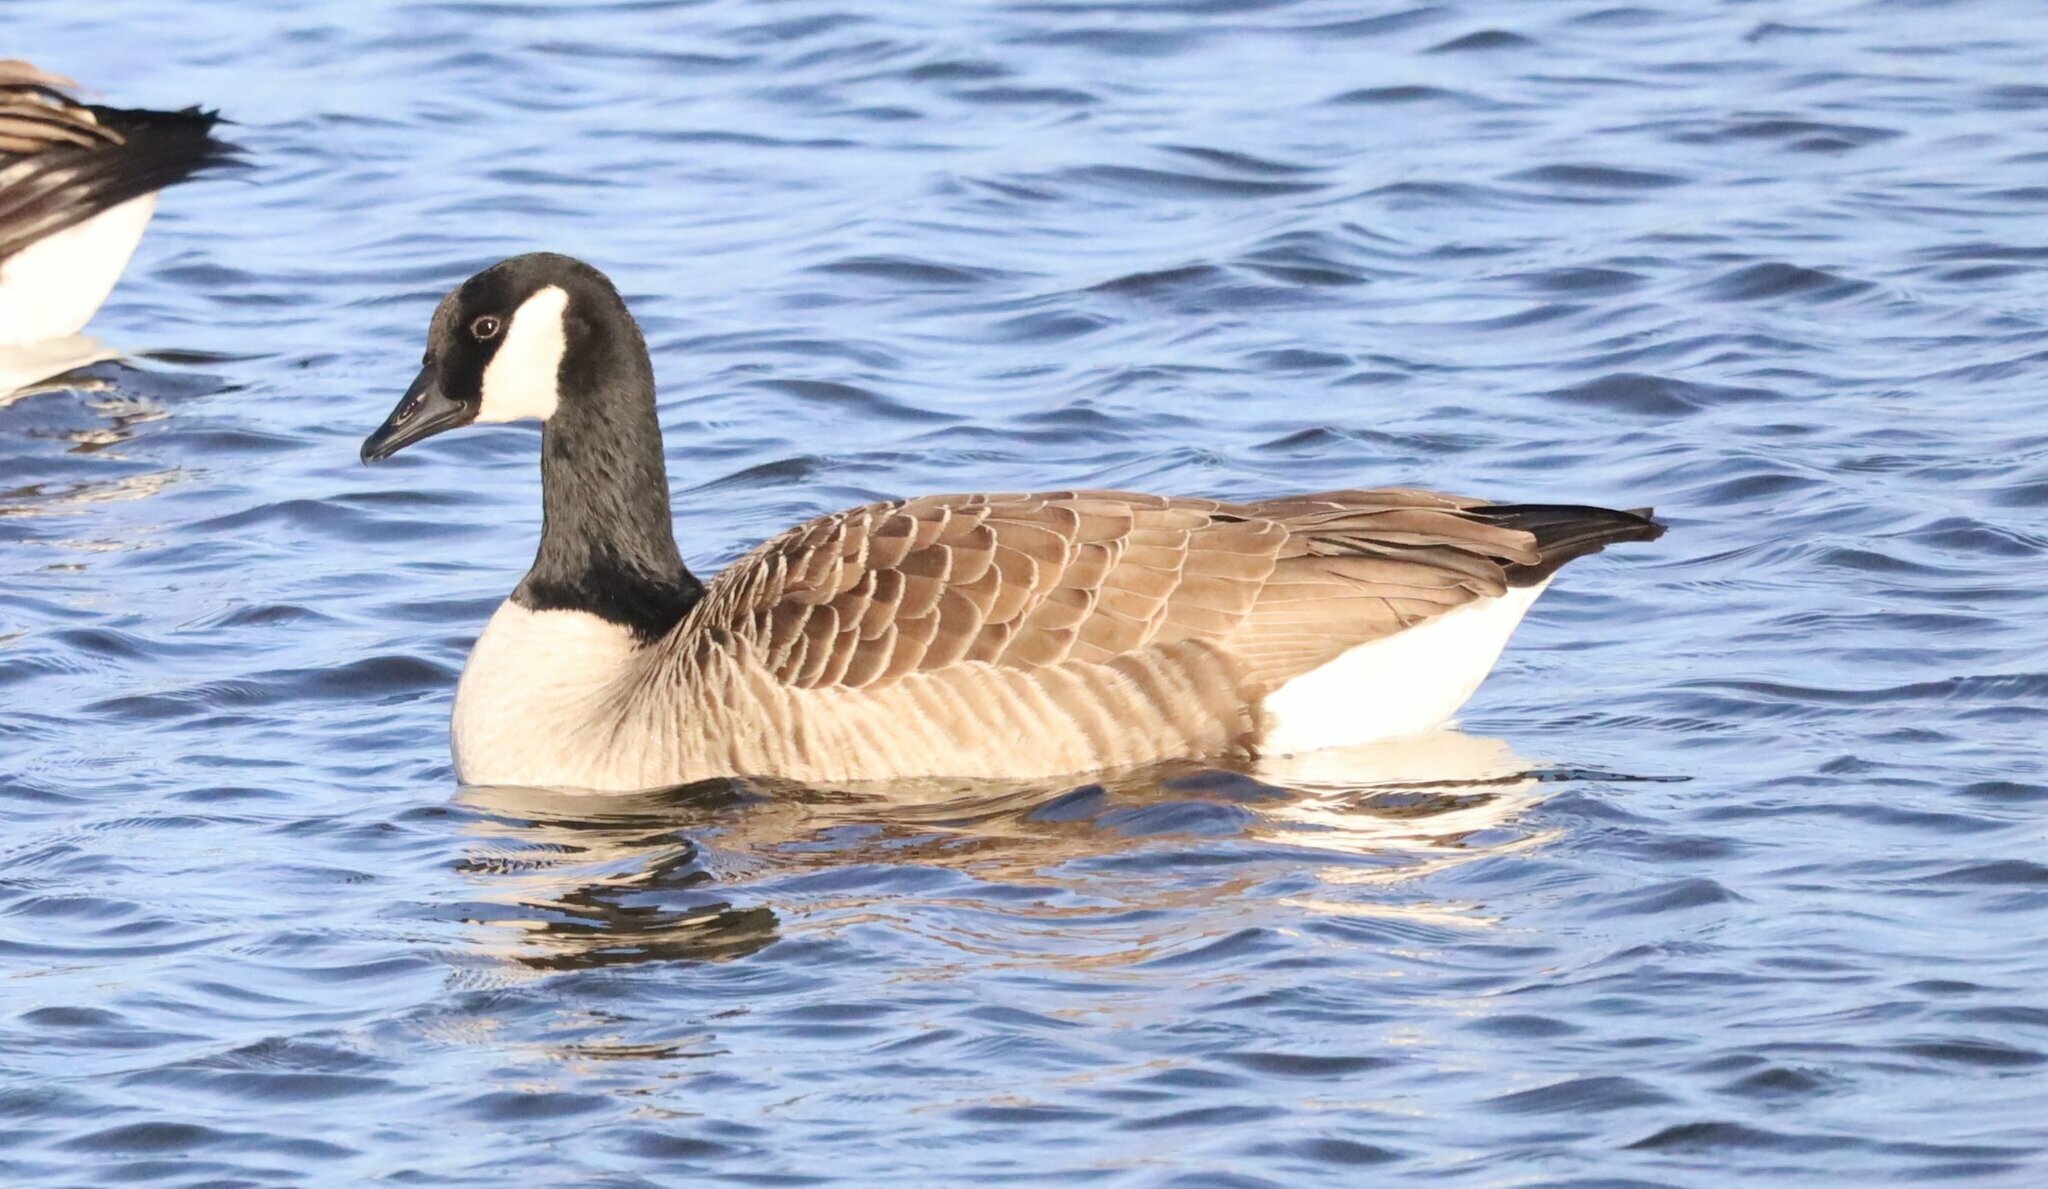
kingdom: Animalia
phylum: Chordata
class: Aves
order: Anseriformes
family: Anatidae
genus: Branta
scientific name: Branta canadensis
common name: Canada goose
